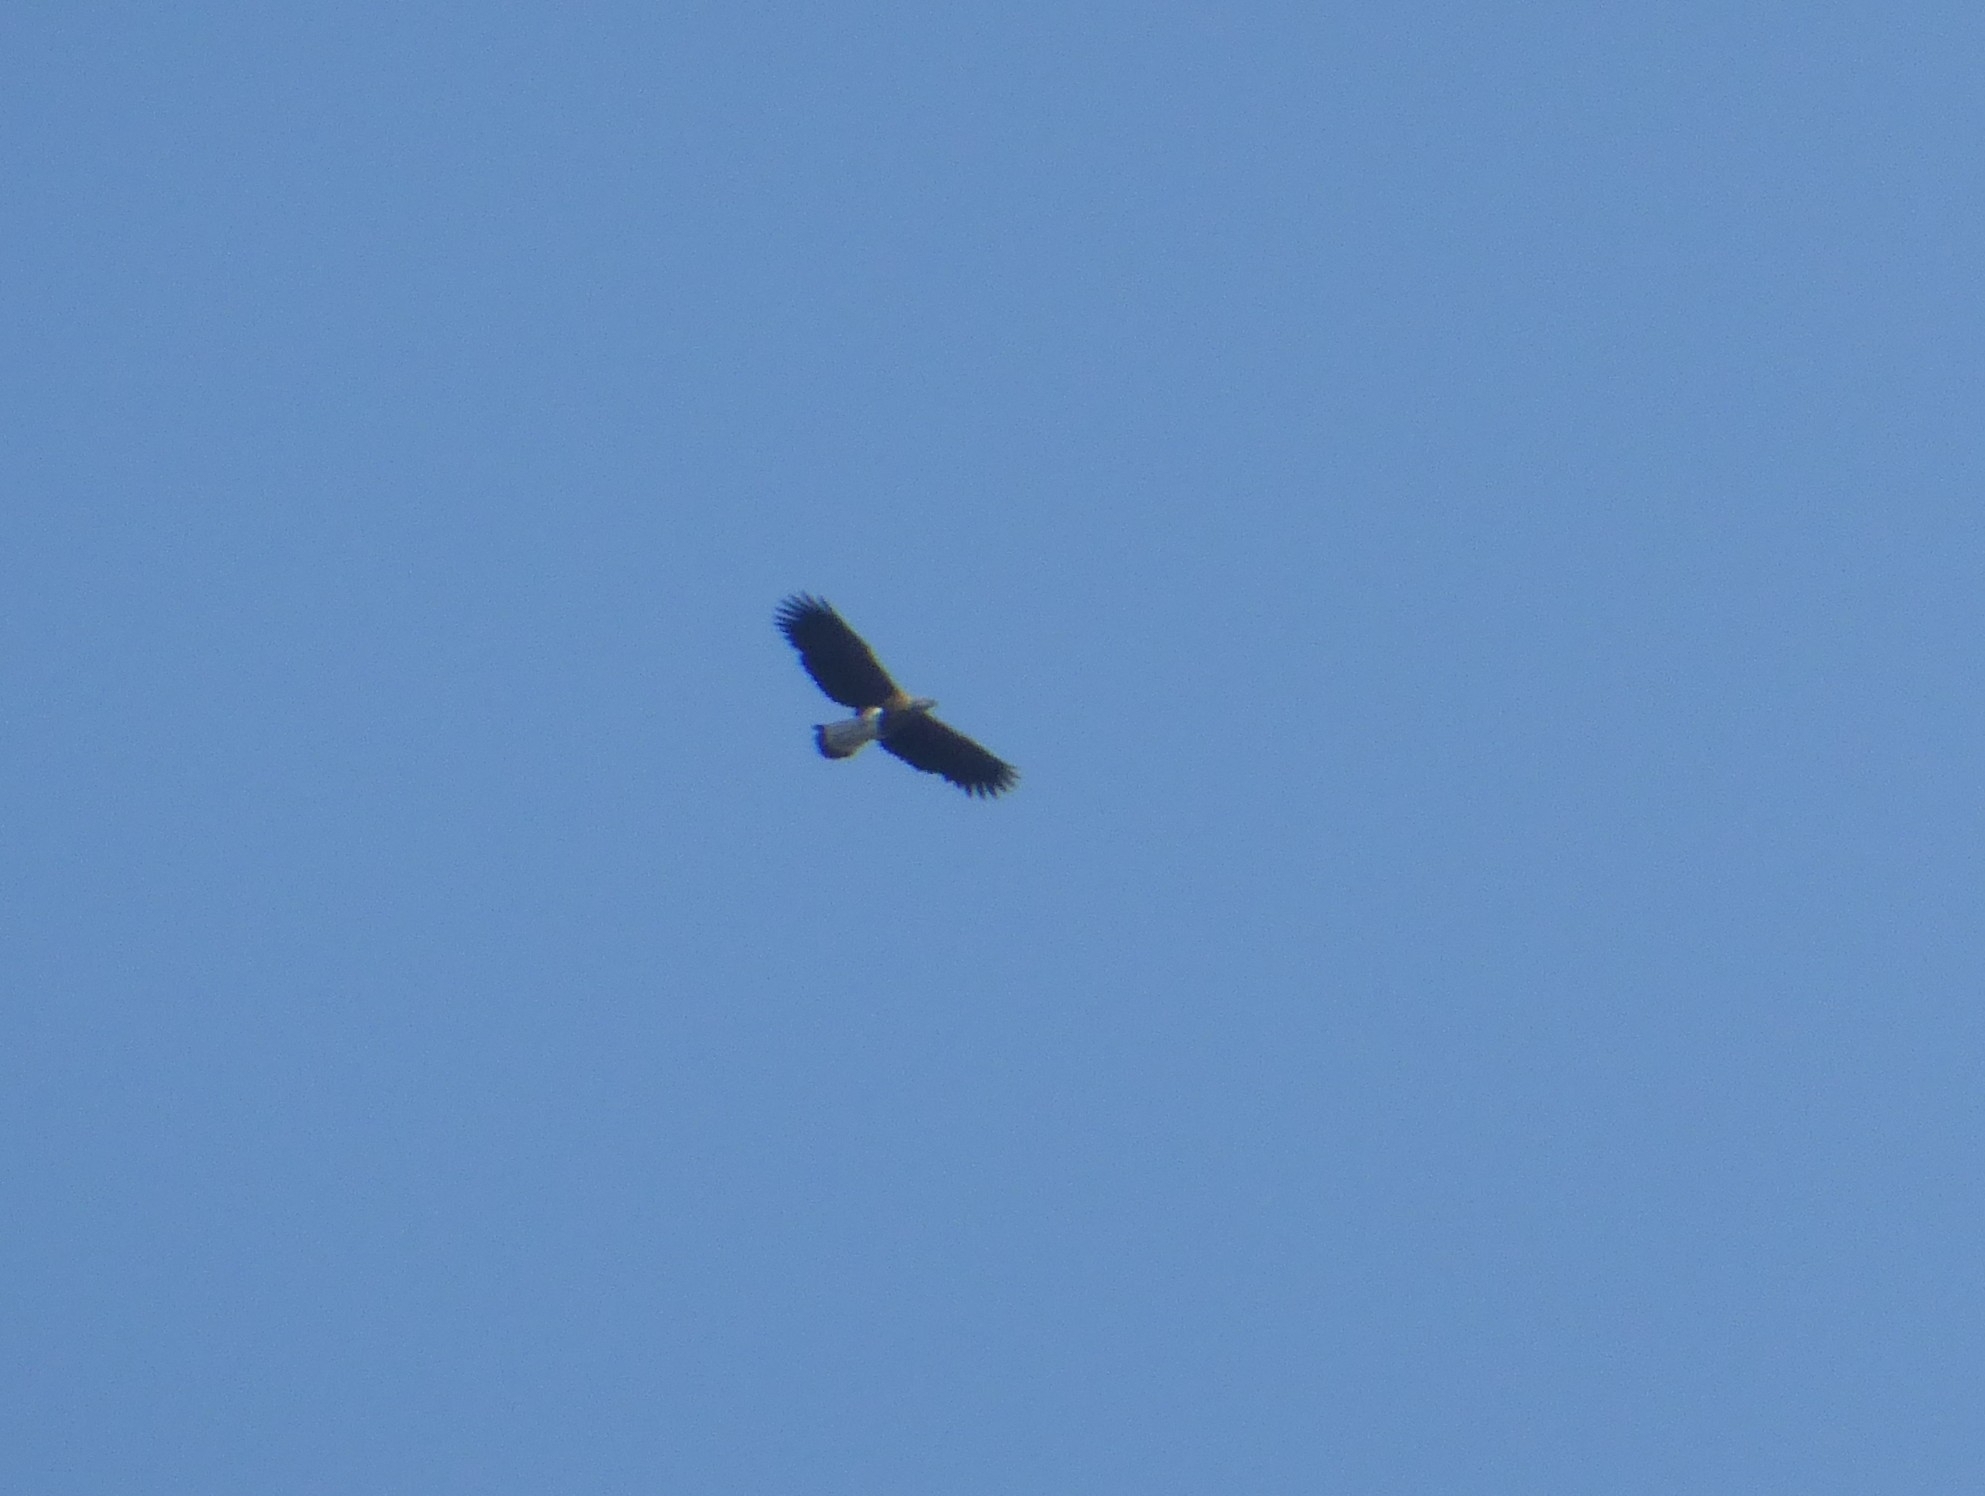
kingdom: Animalia
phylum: Chordata
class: Aves
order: Accipitriformes
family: Accipitridae
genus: Icthyophaga
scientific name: Icthyophaga ichthyaetus
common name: Grey-headed fish eagle
